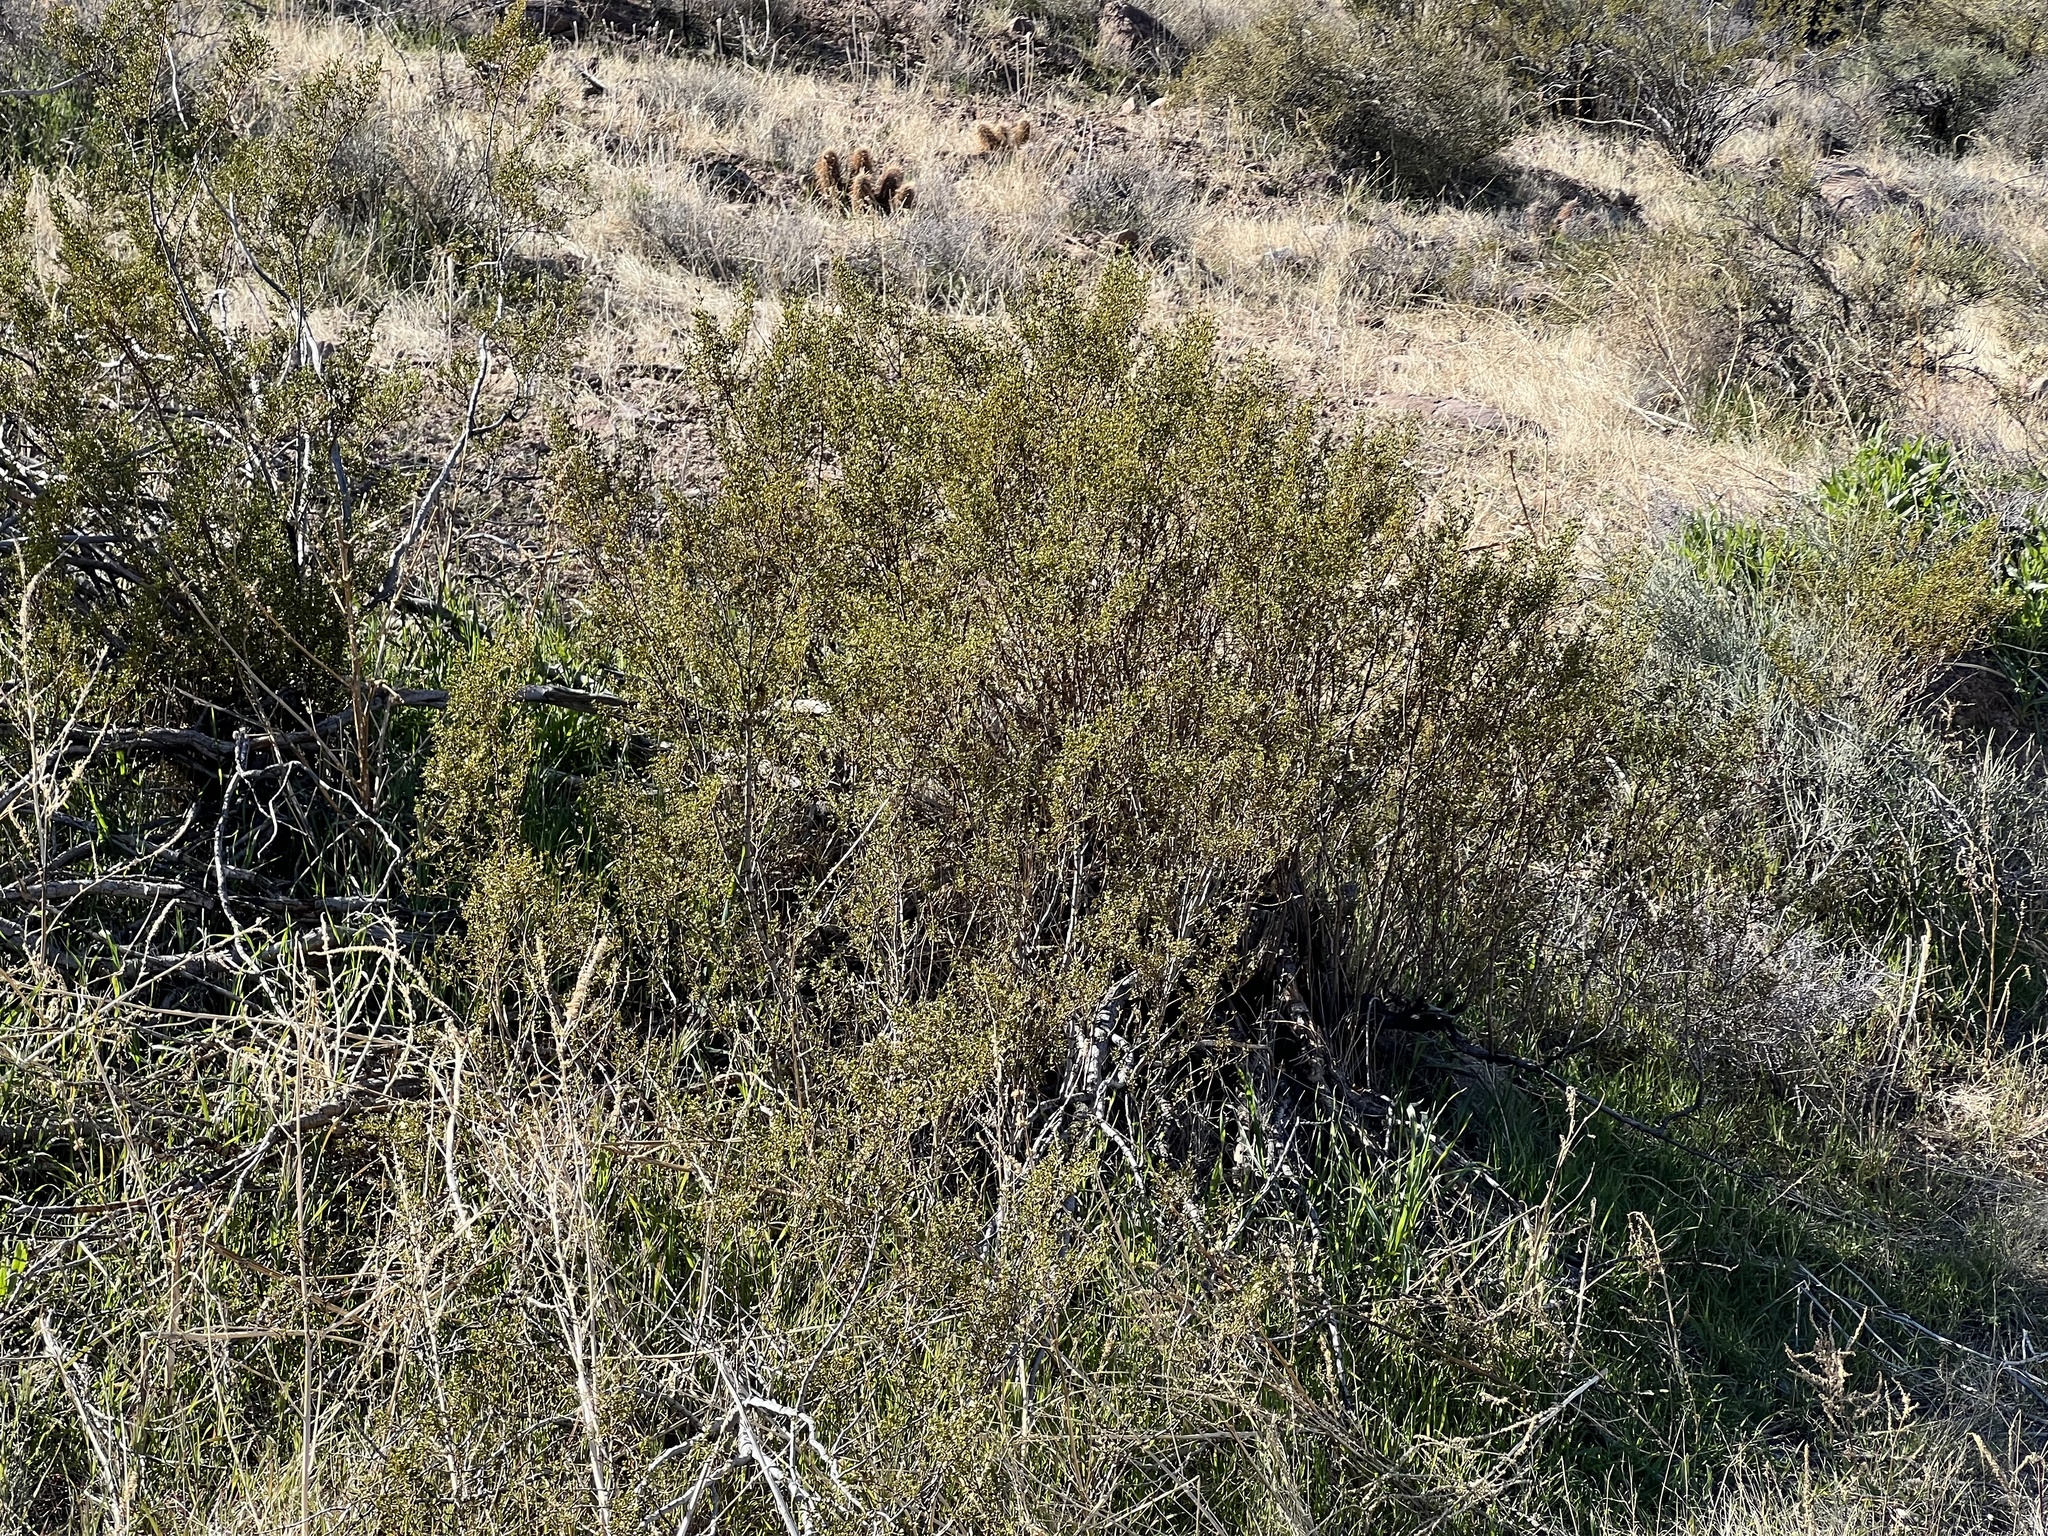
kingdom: Plantae
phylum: Tracheophyta
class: Magnoliopsida
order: Zygophyllales
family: Zygophyllaceae
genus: Larrea
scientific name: Larrea tridentata
